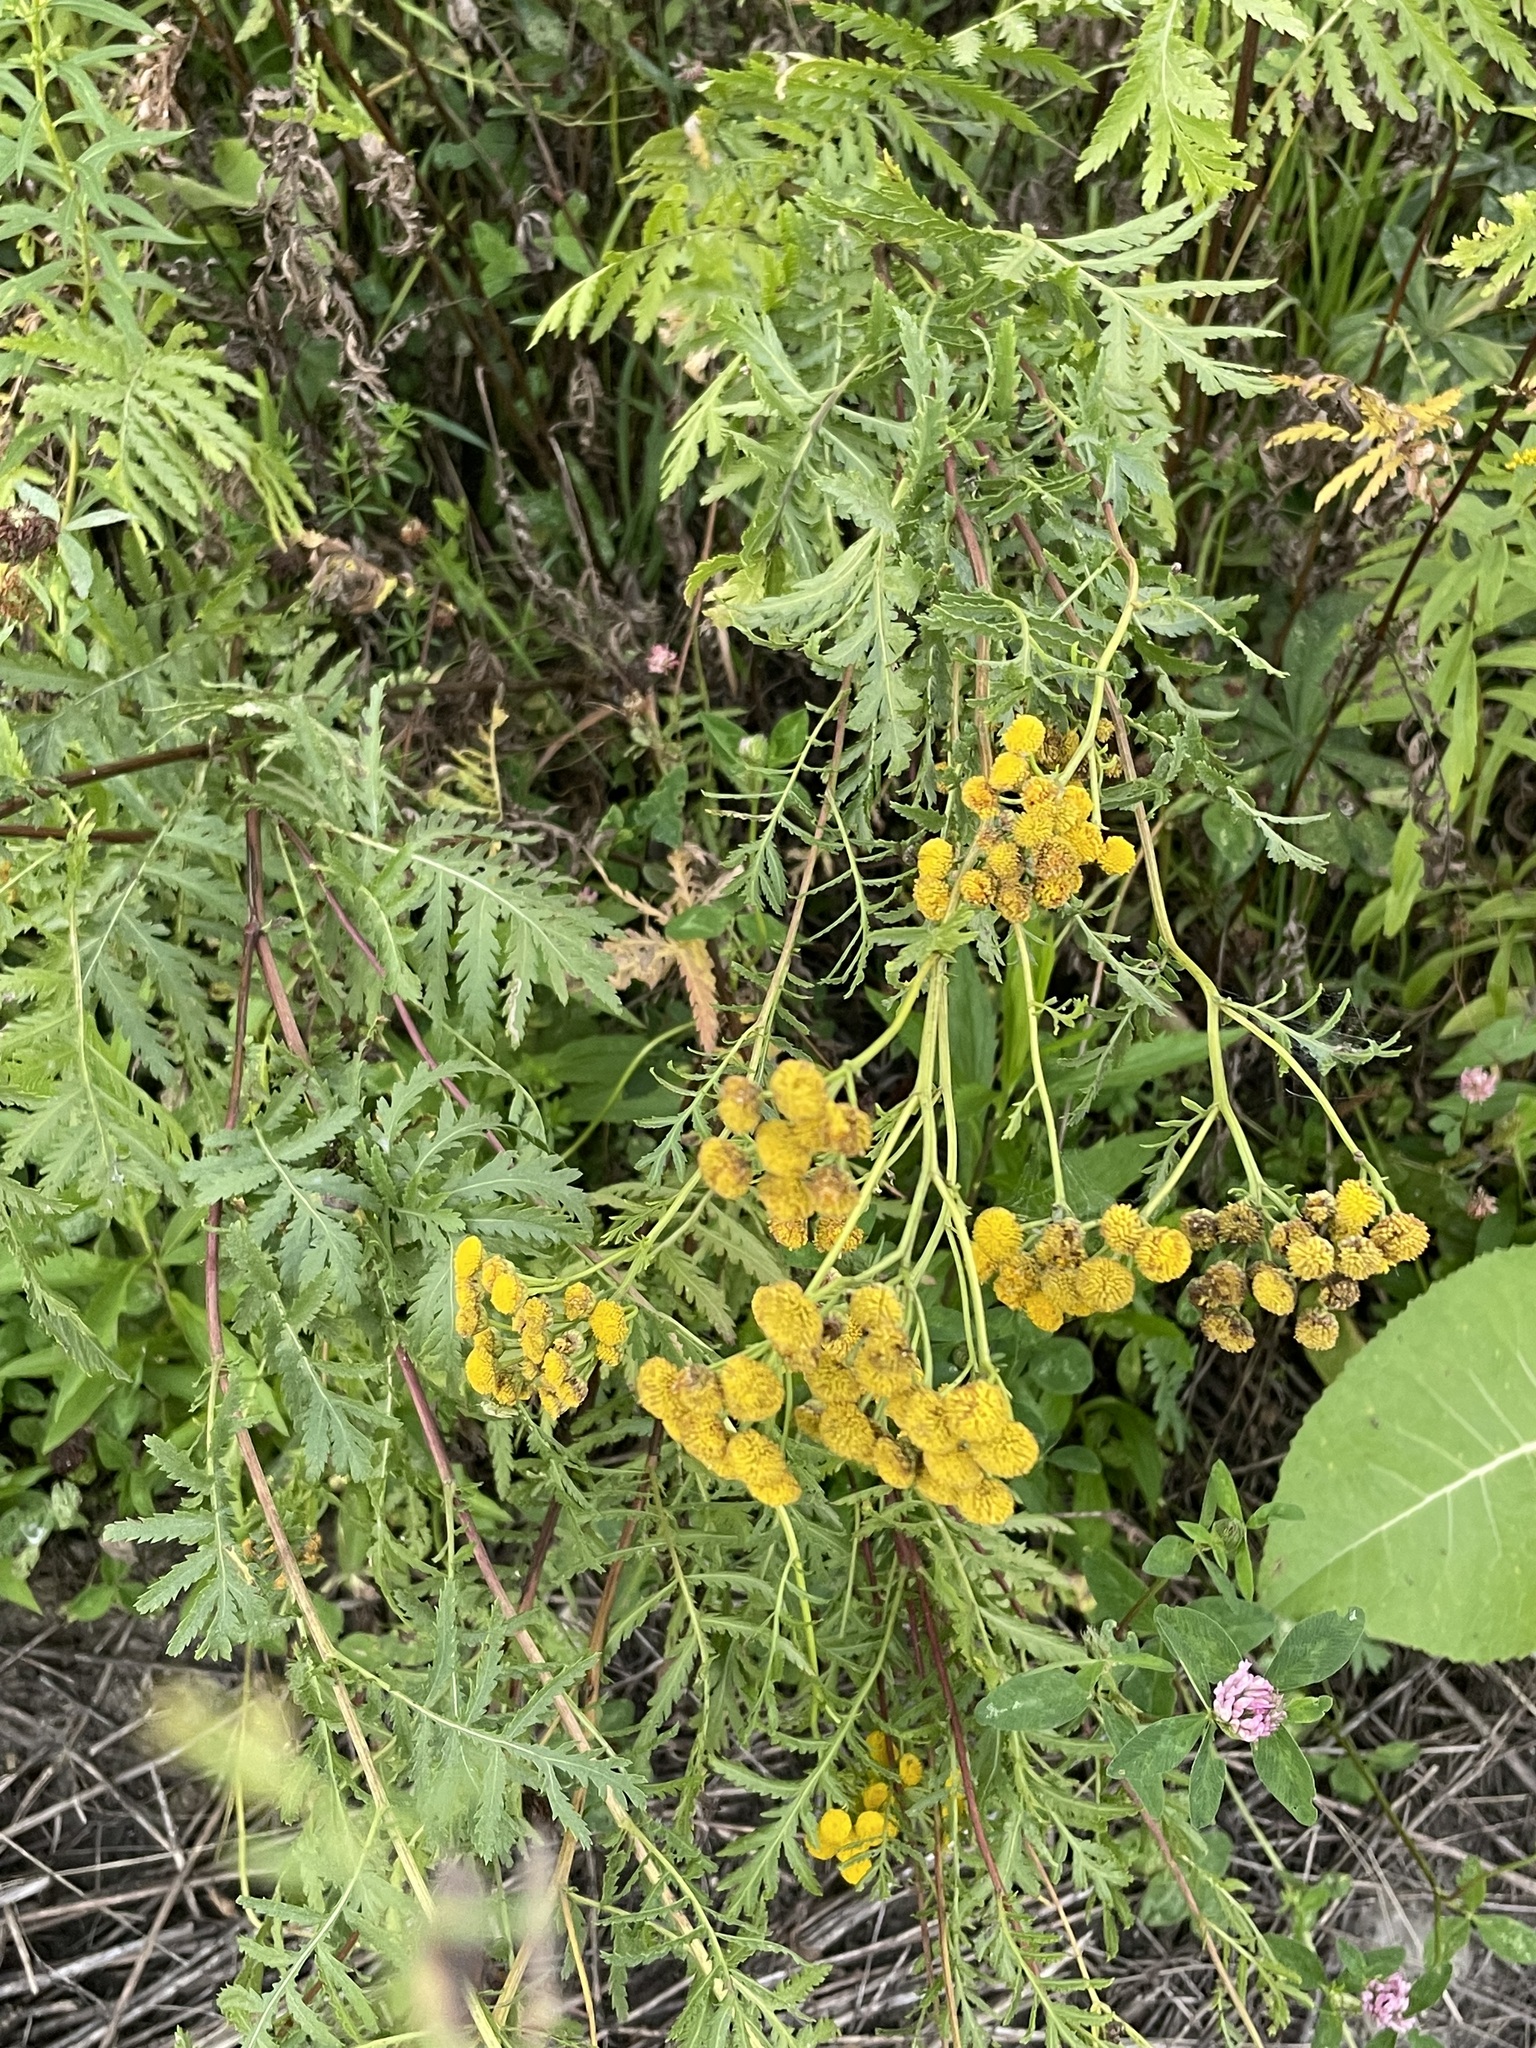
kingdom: Plantae
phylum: Tracheophyta
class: Magnoliopsida
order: Asterales
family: Asteraceae
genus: Tanacetum
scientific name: Tanacetum vulgare
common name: Common tansy
